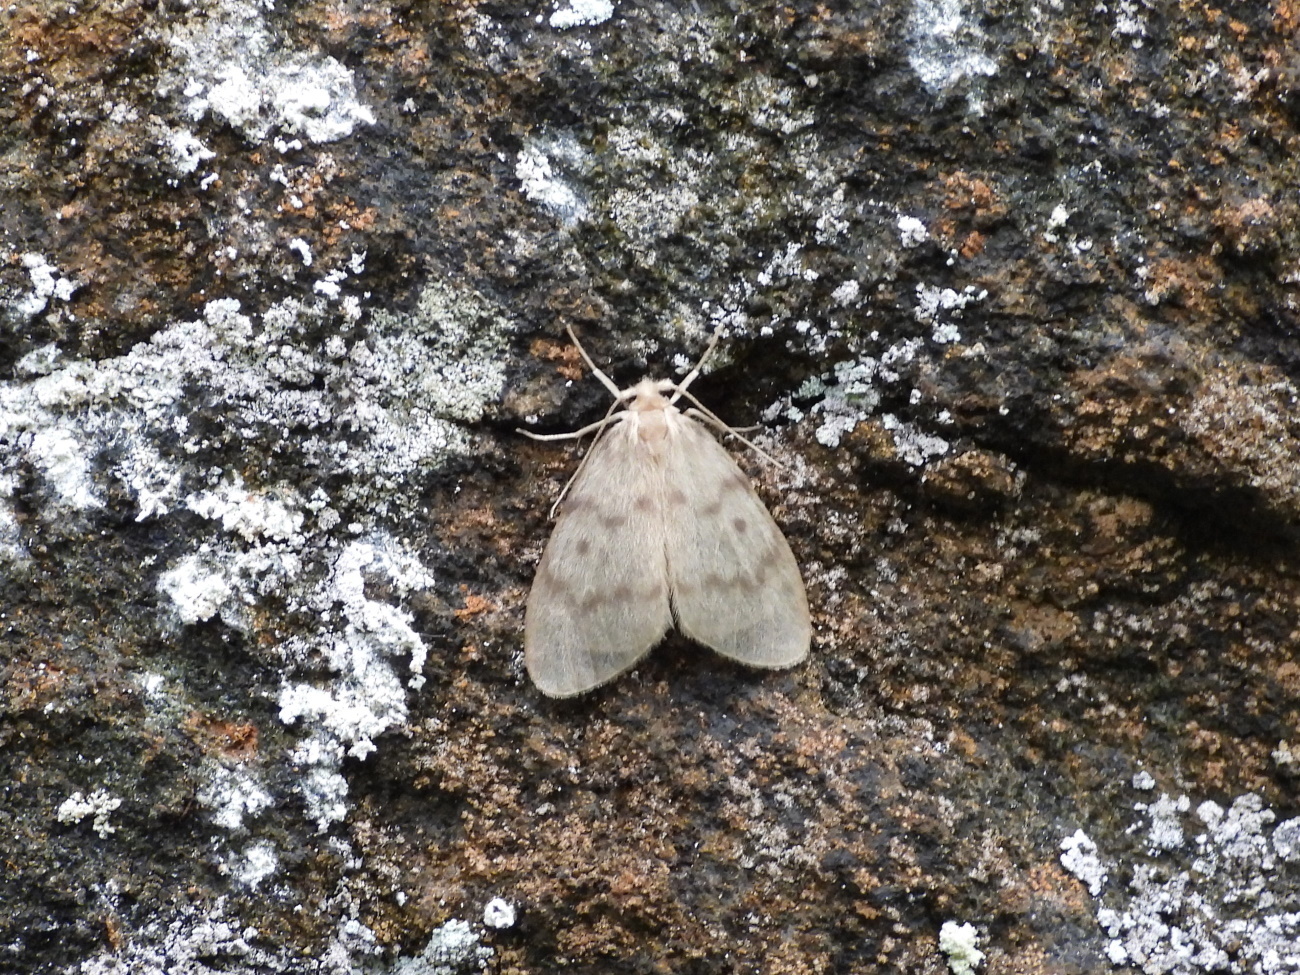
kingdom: Animalia
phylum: Arthropoda
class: Insecta
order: Lepidoptera
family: Erebidae
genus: Nudaria
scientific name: Nudaria mundana
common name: Muslin footman
